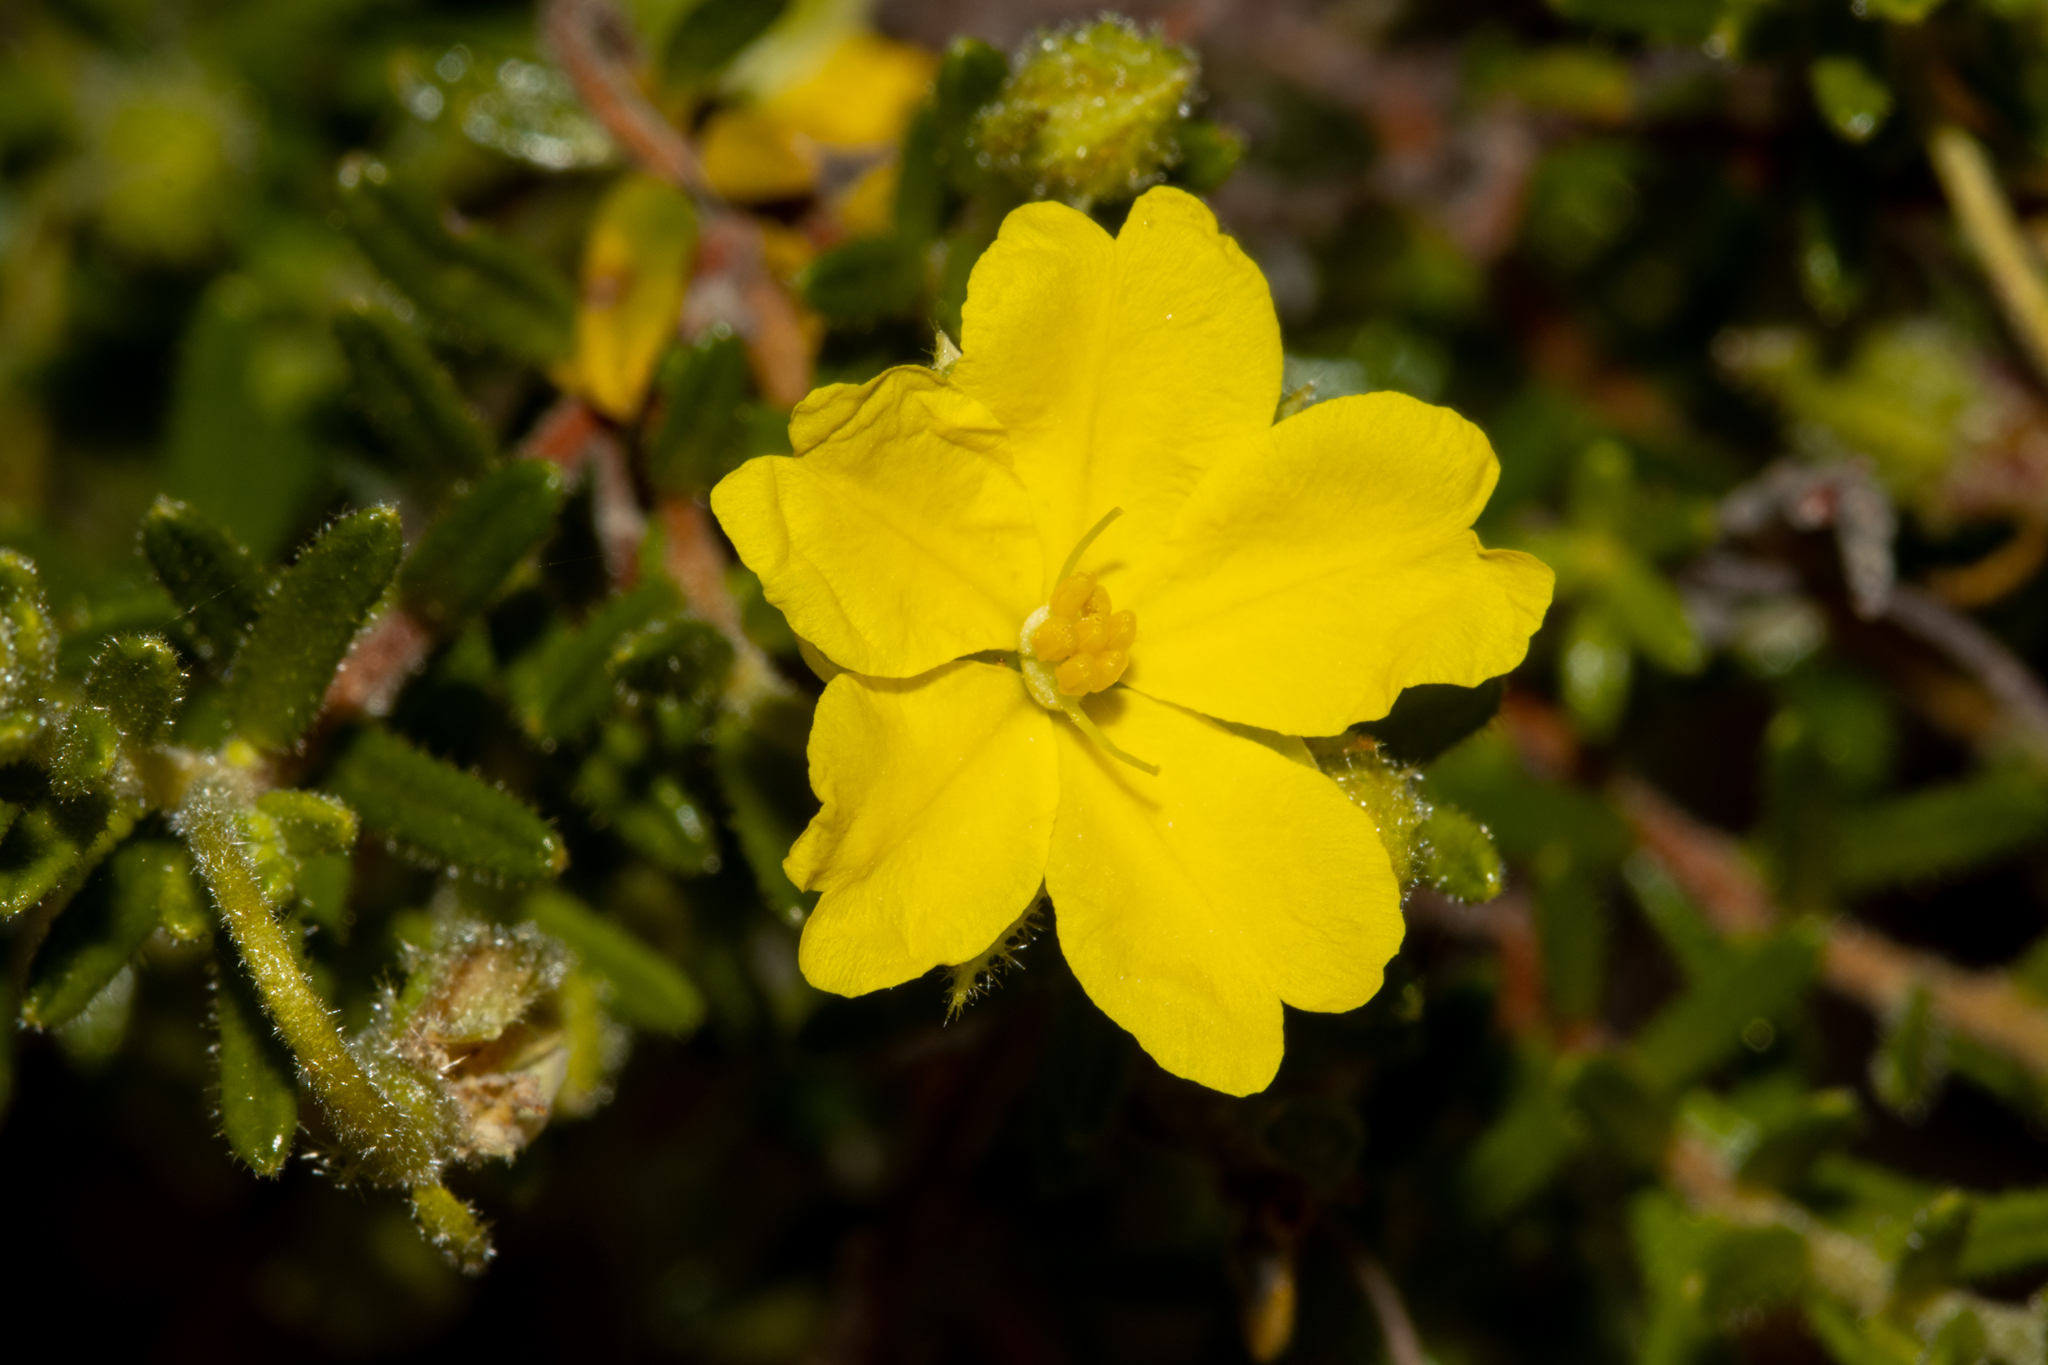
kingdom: Plantae
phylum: Tracheophyta
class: Magnoliopsida
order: Dilleniales
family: Dilleniaceae
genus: Hibbertia
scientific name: Hibbertia glebosa
